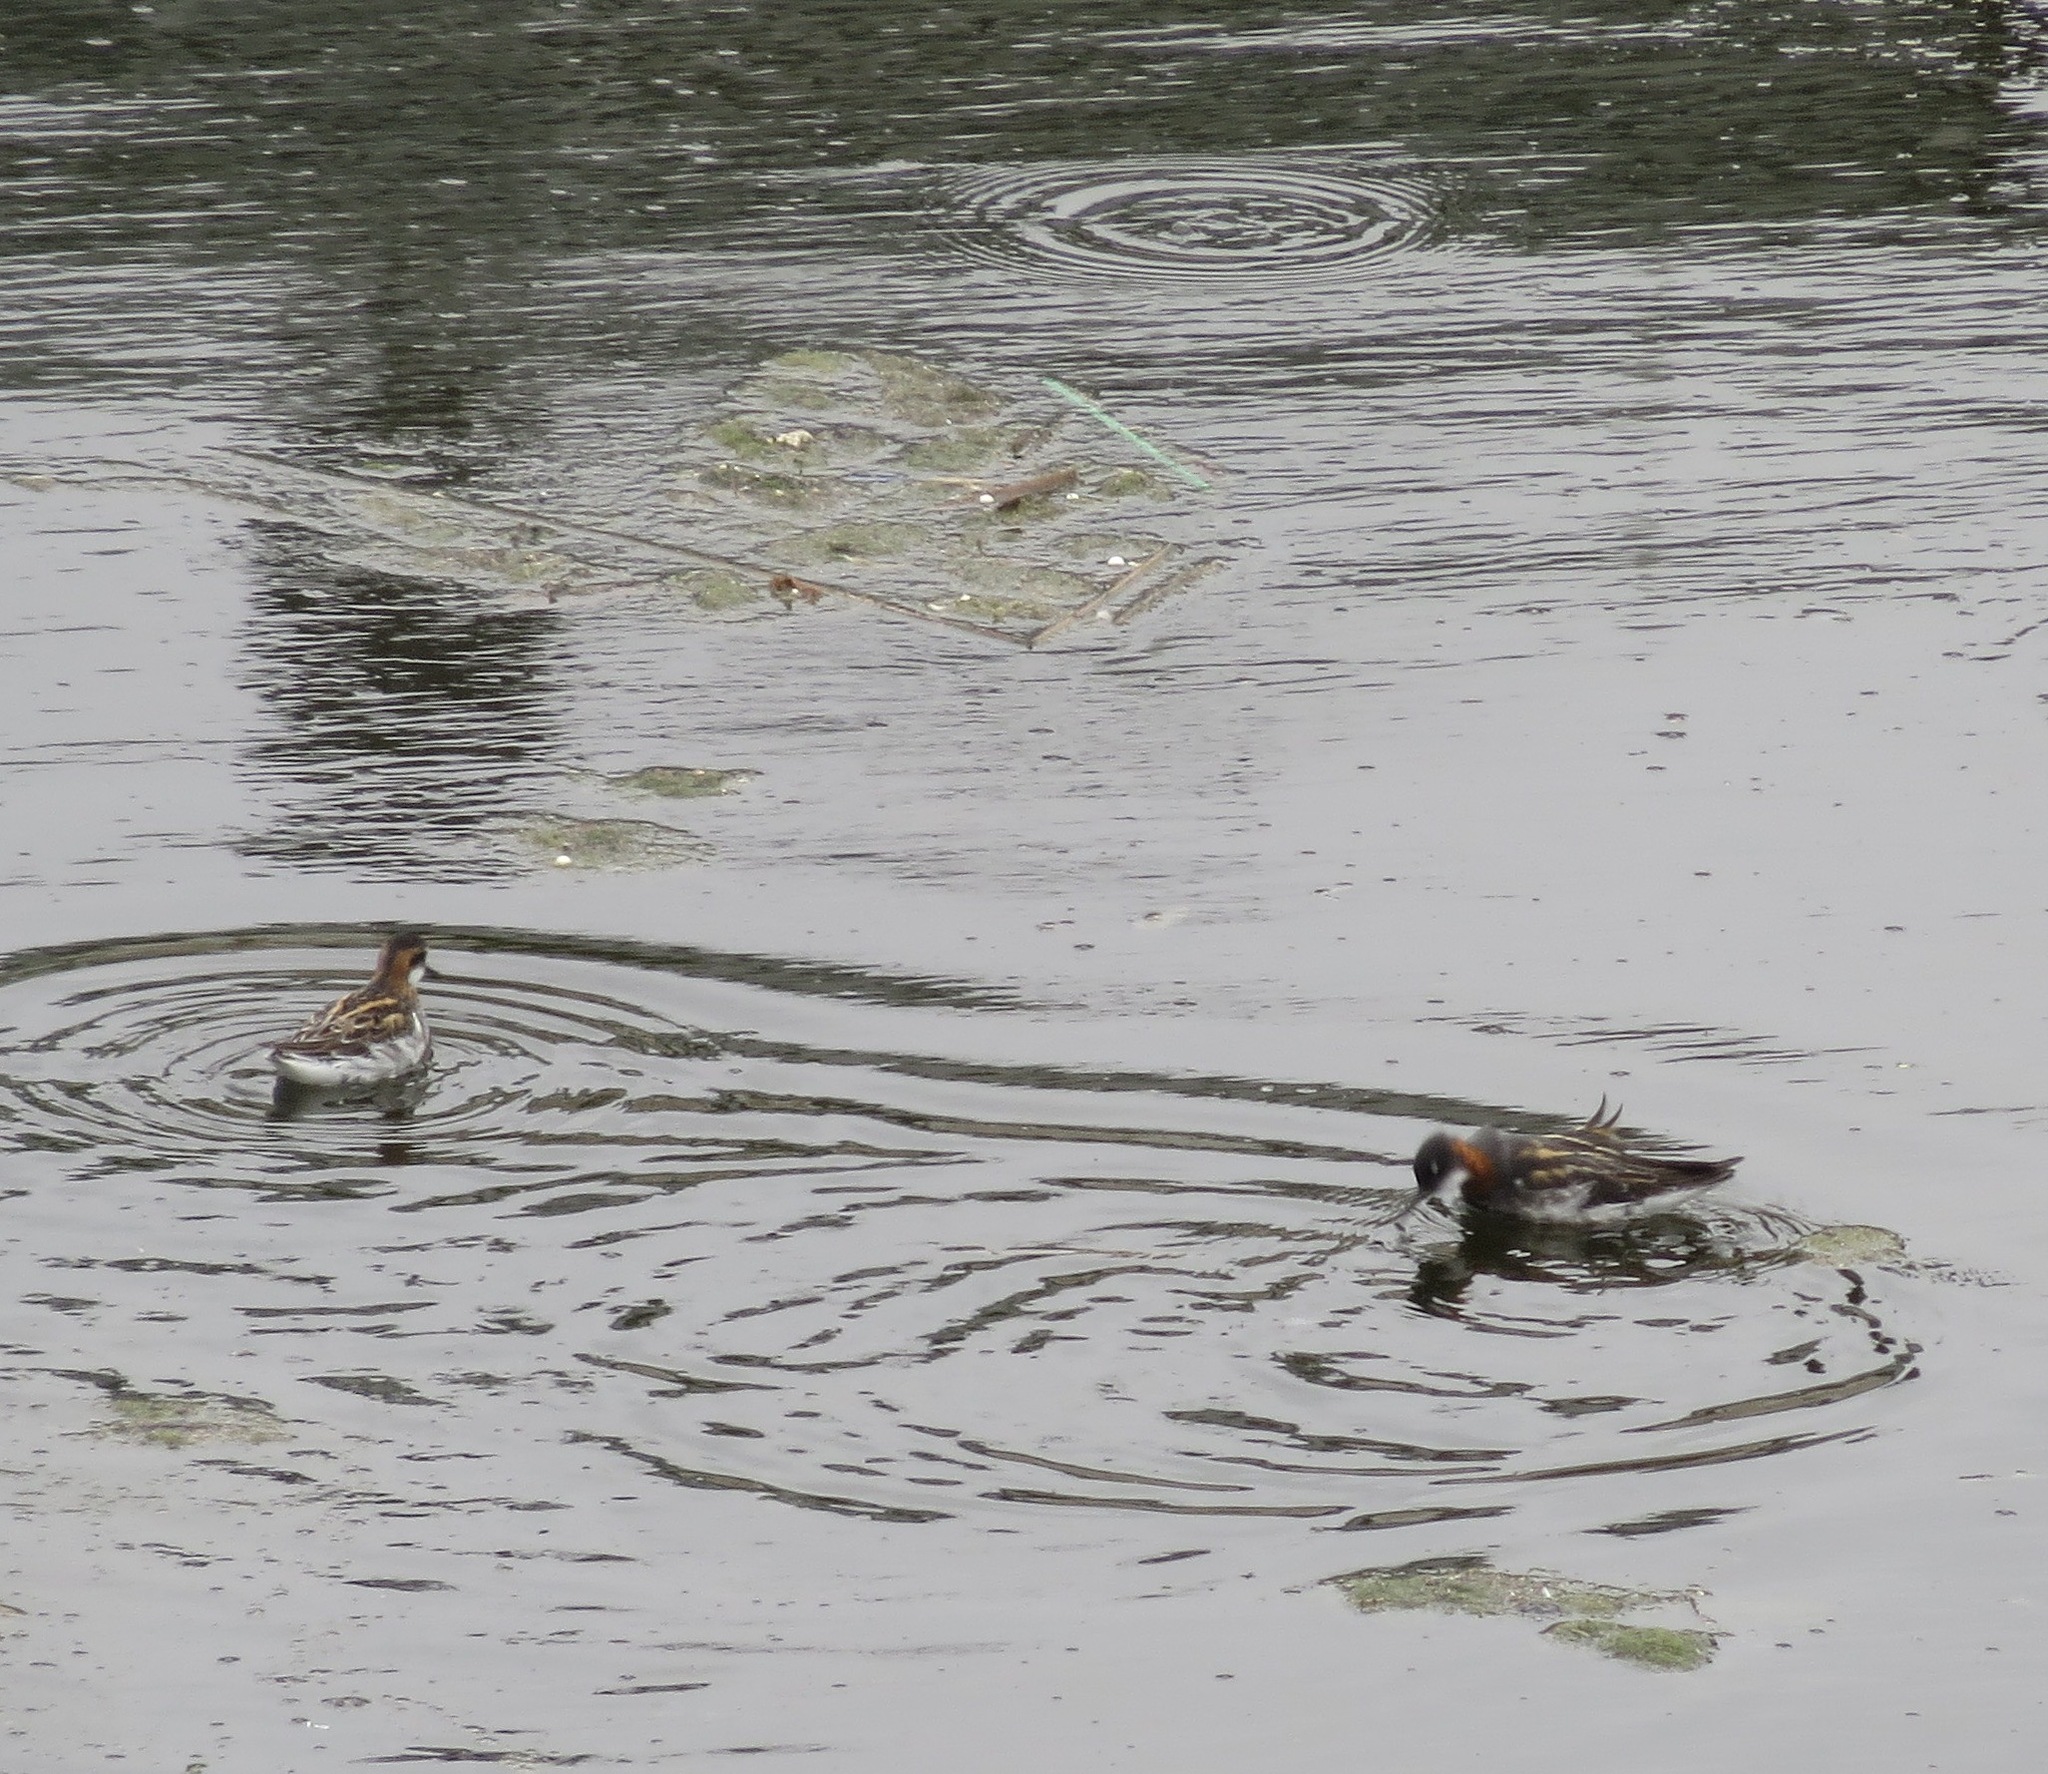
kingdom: Animalia
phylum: Chordata
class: Aves
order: Charadriiformes
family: Scolopacidae
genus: Phalaropus
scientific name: Phalaropus lobatus
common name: Red-necked phalarope
